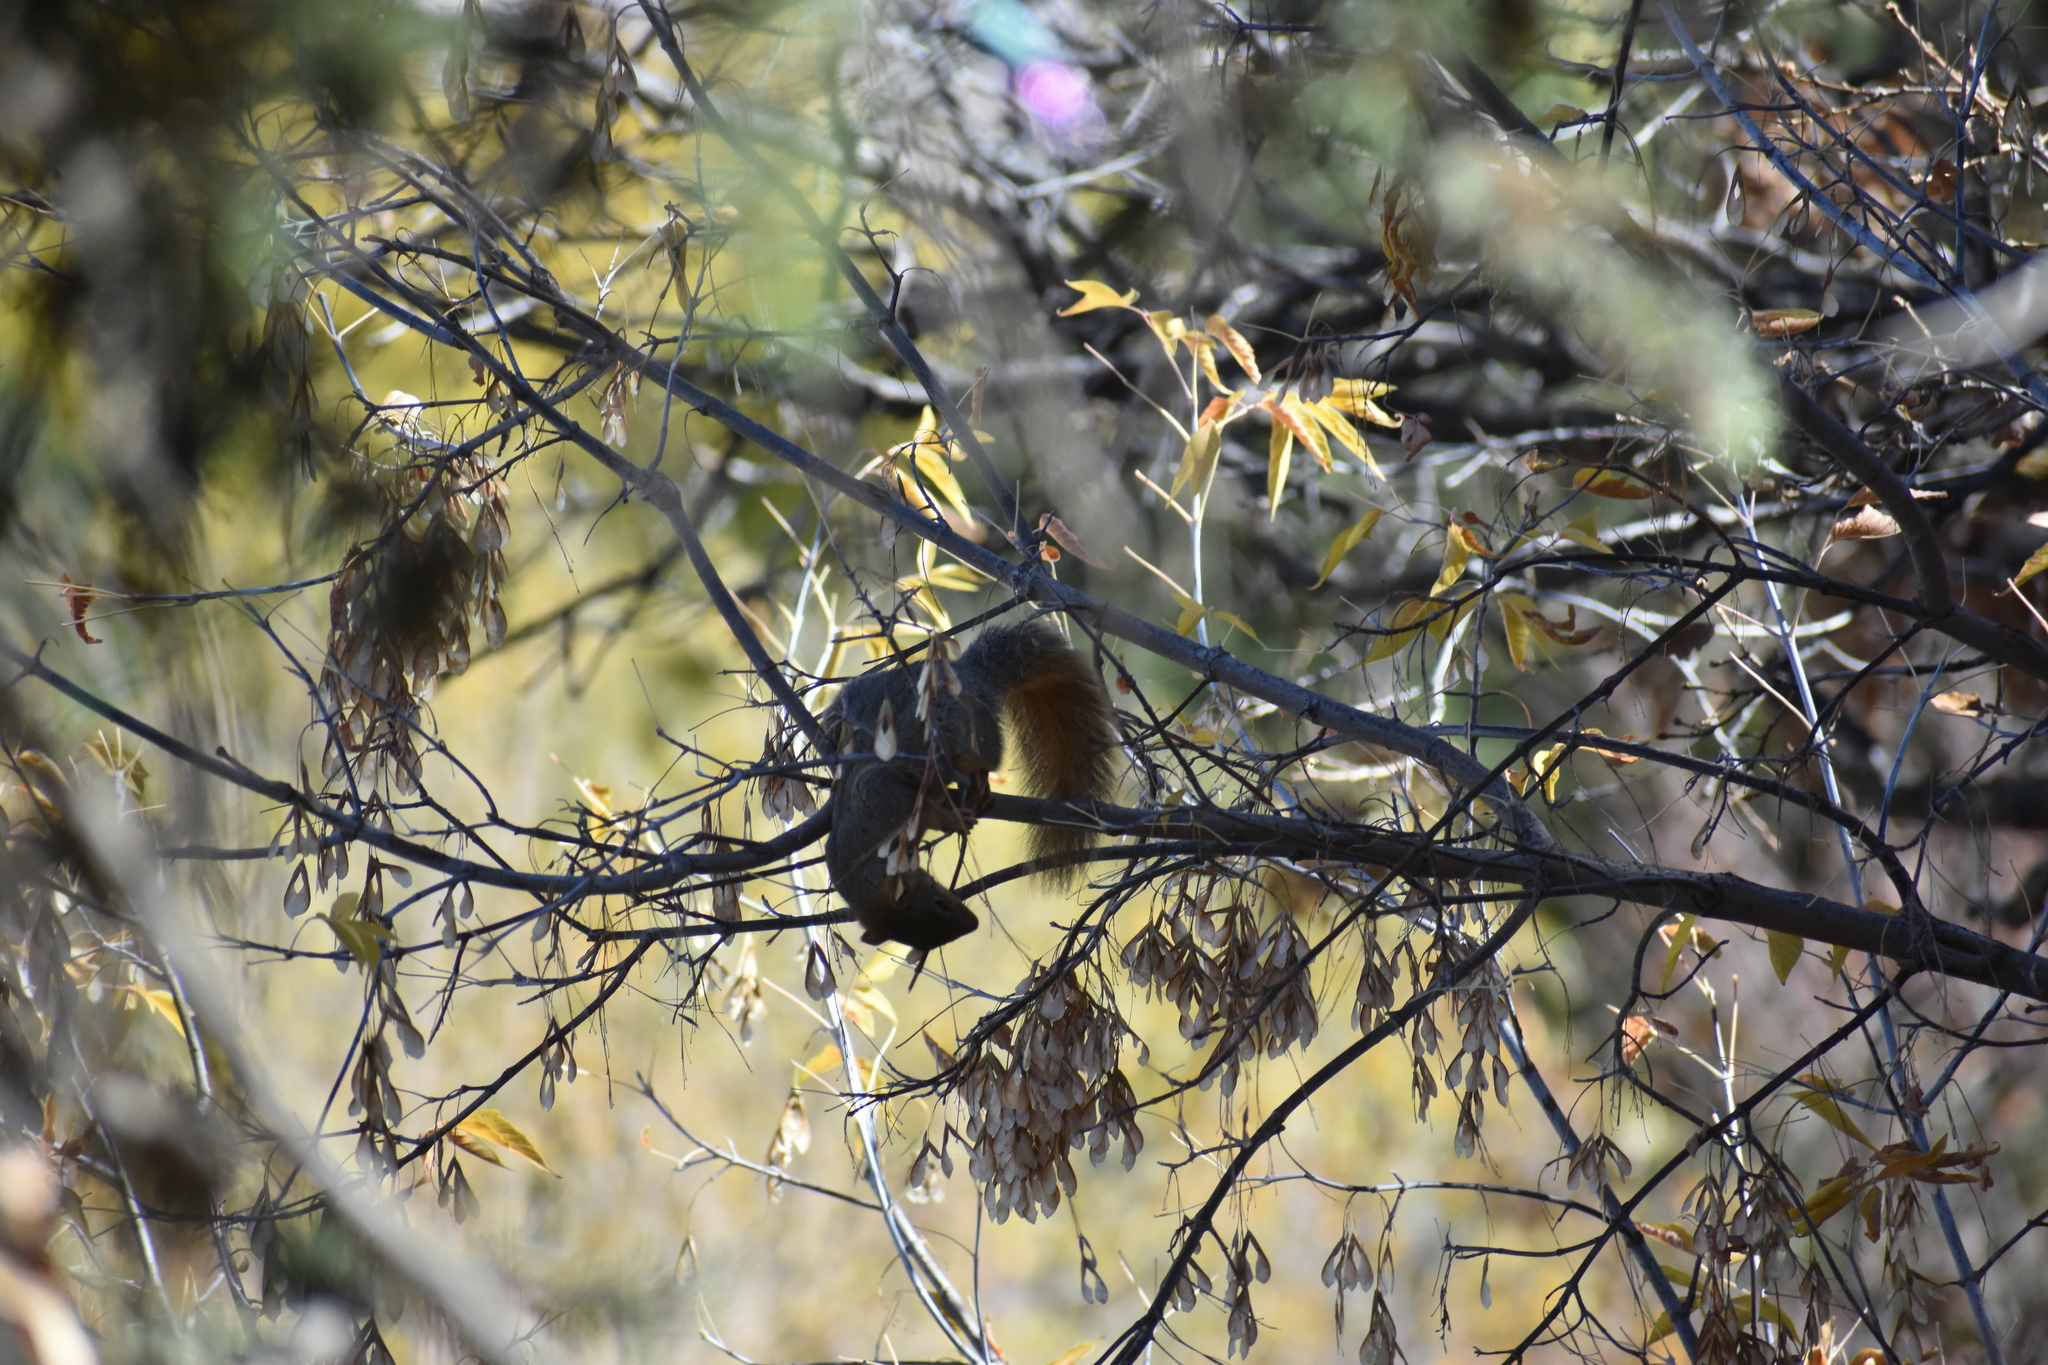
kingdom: Animalia
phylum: Chordata
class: Mammalia
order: Rodentia
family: Sciuridae
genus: Sciurus
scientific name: Sciurus niger
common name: Fox squirrel
